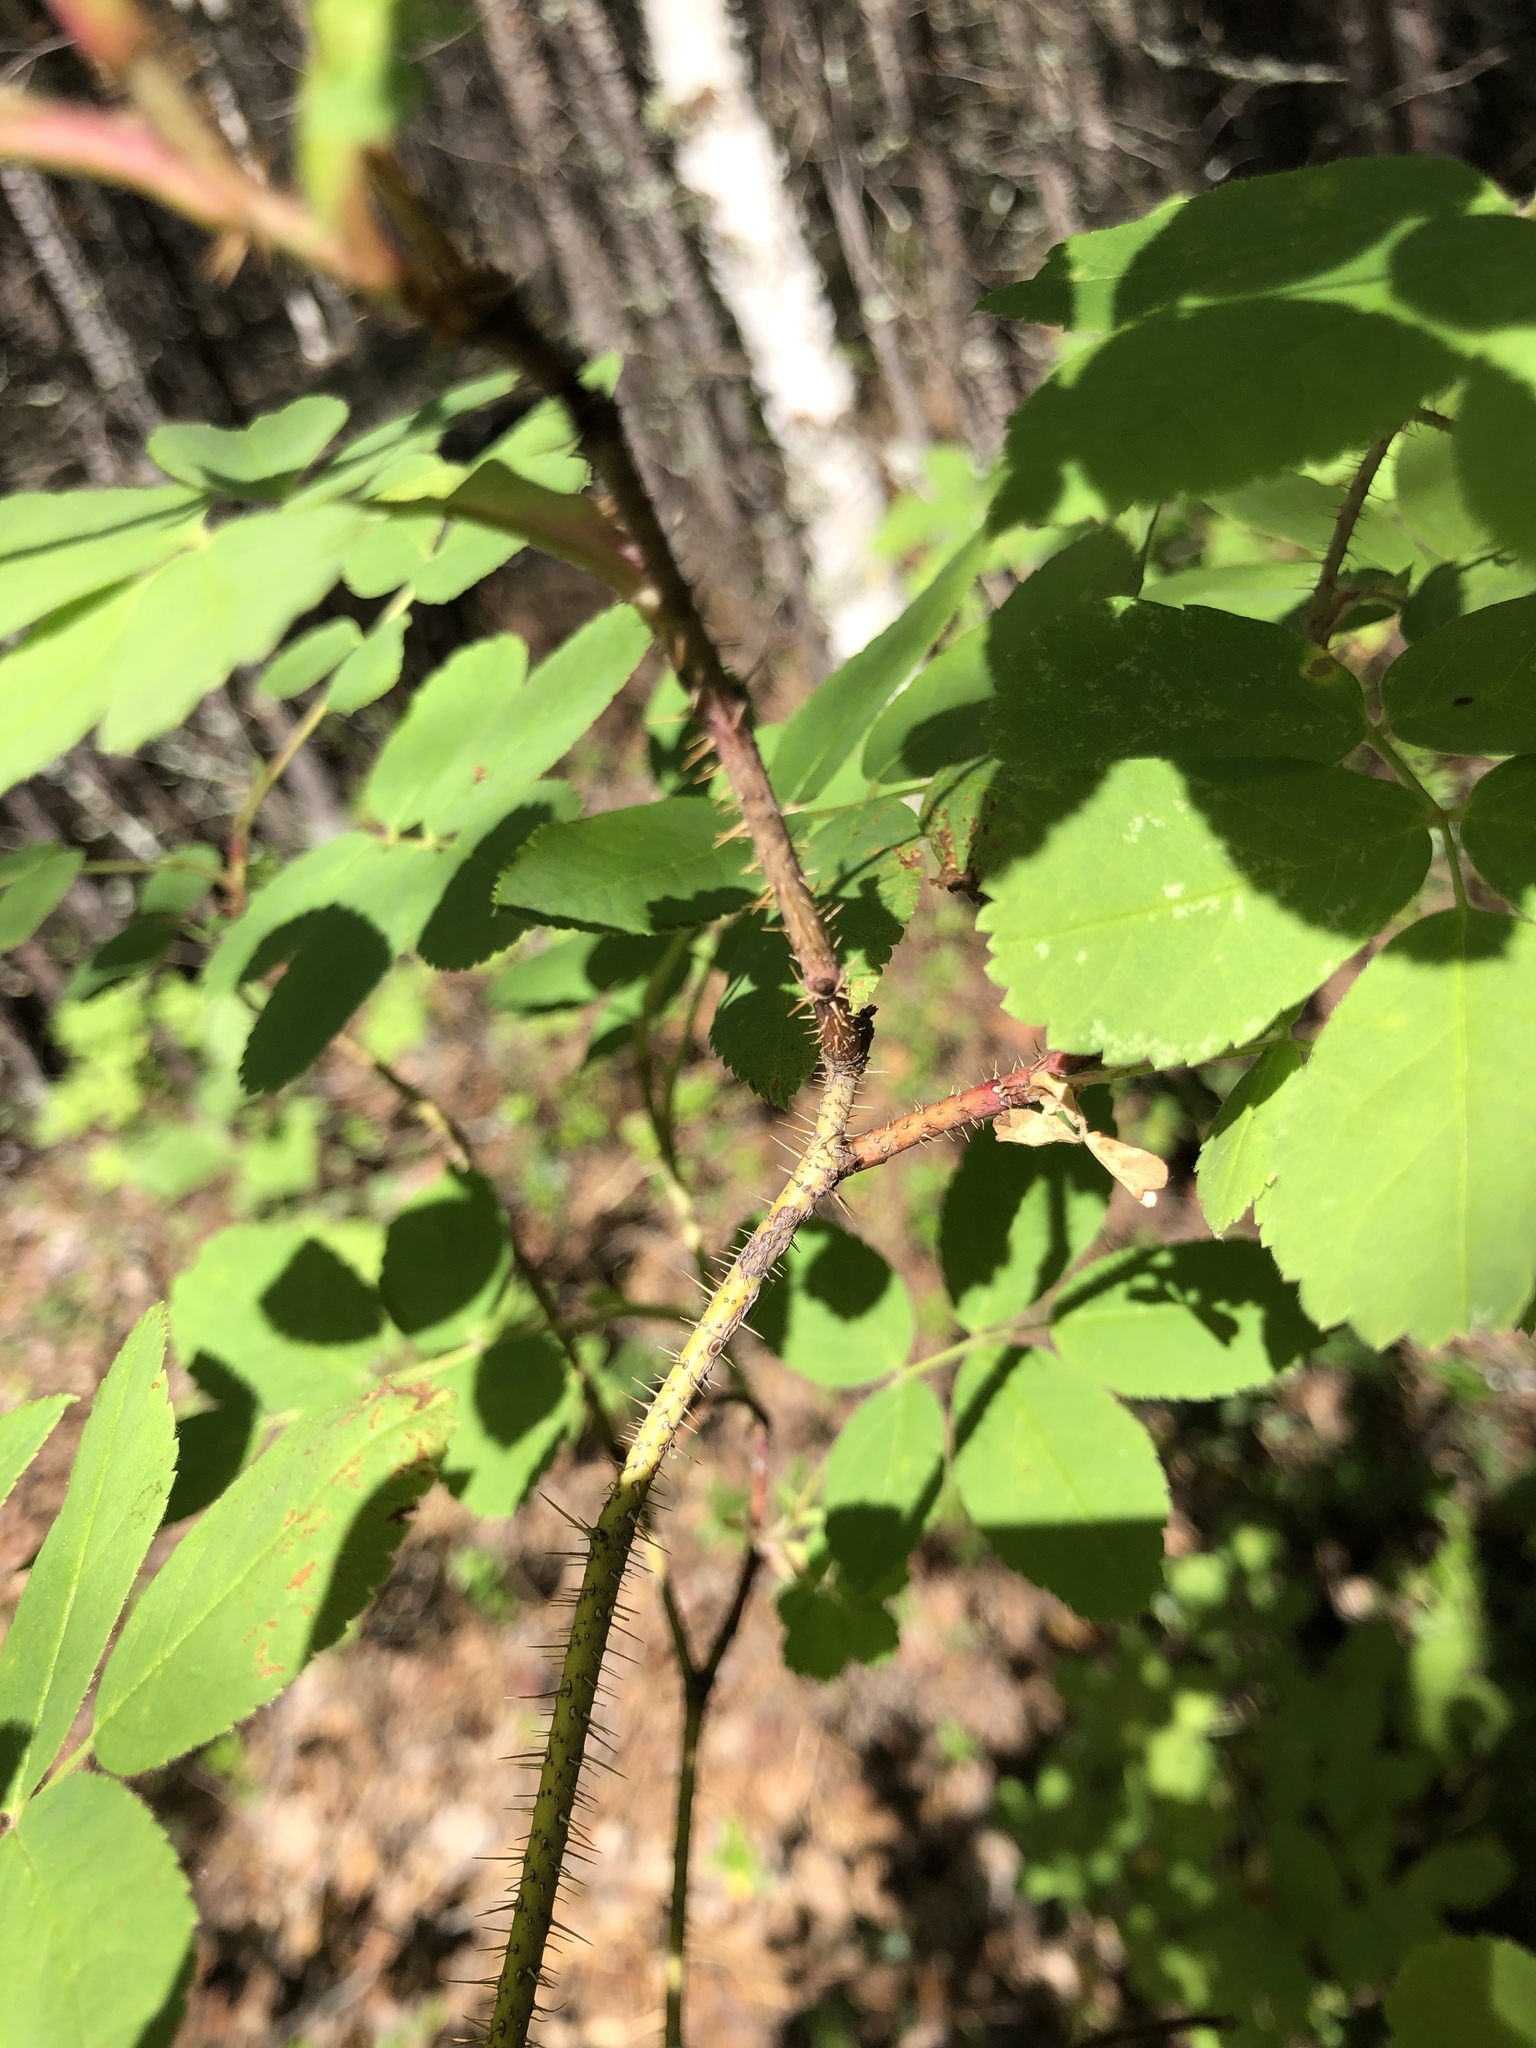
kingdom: Plantae
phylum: Tracheophyta
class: Magnoliopsida
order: Rosales
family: Rosaceae
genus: Rosa
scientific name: Rosa acicularis
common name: Prickly rose
